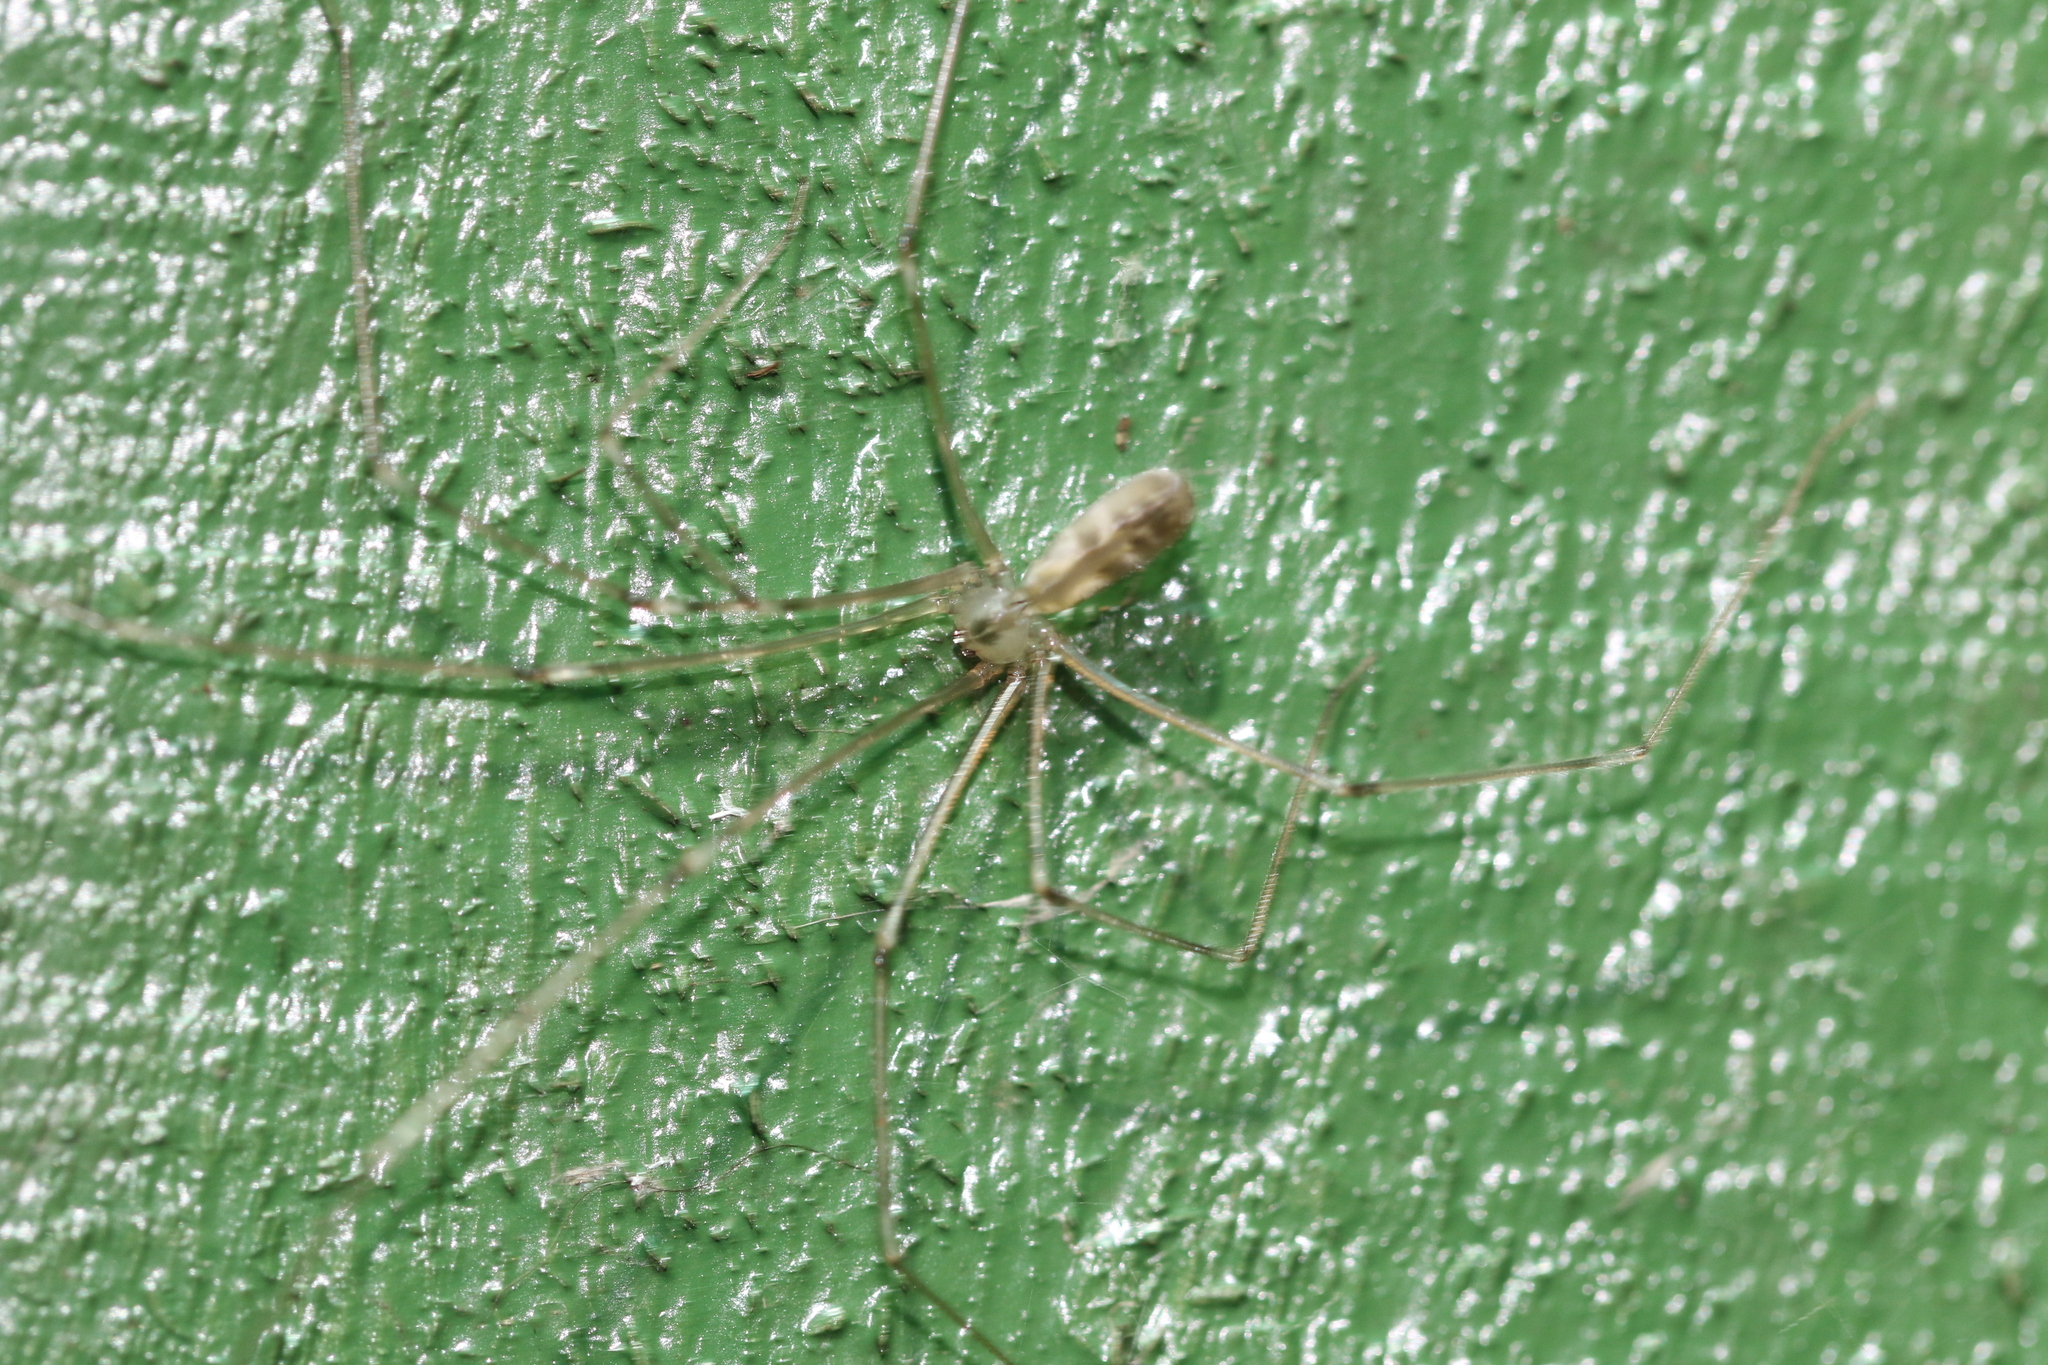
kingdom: Animalia
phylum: Arthropoda
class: Arachnida
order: Araneae
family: Pholcidae
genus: Pholcus
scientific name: Pholcus phalangioides
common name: Longbodied cellar spider
